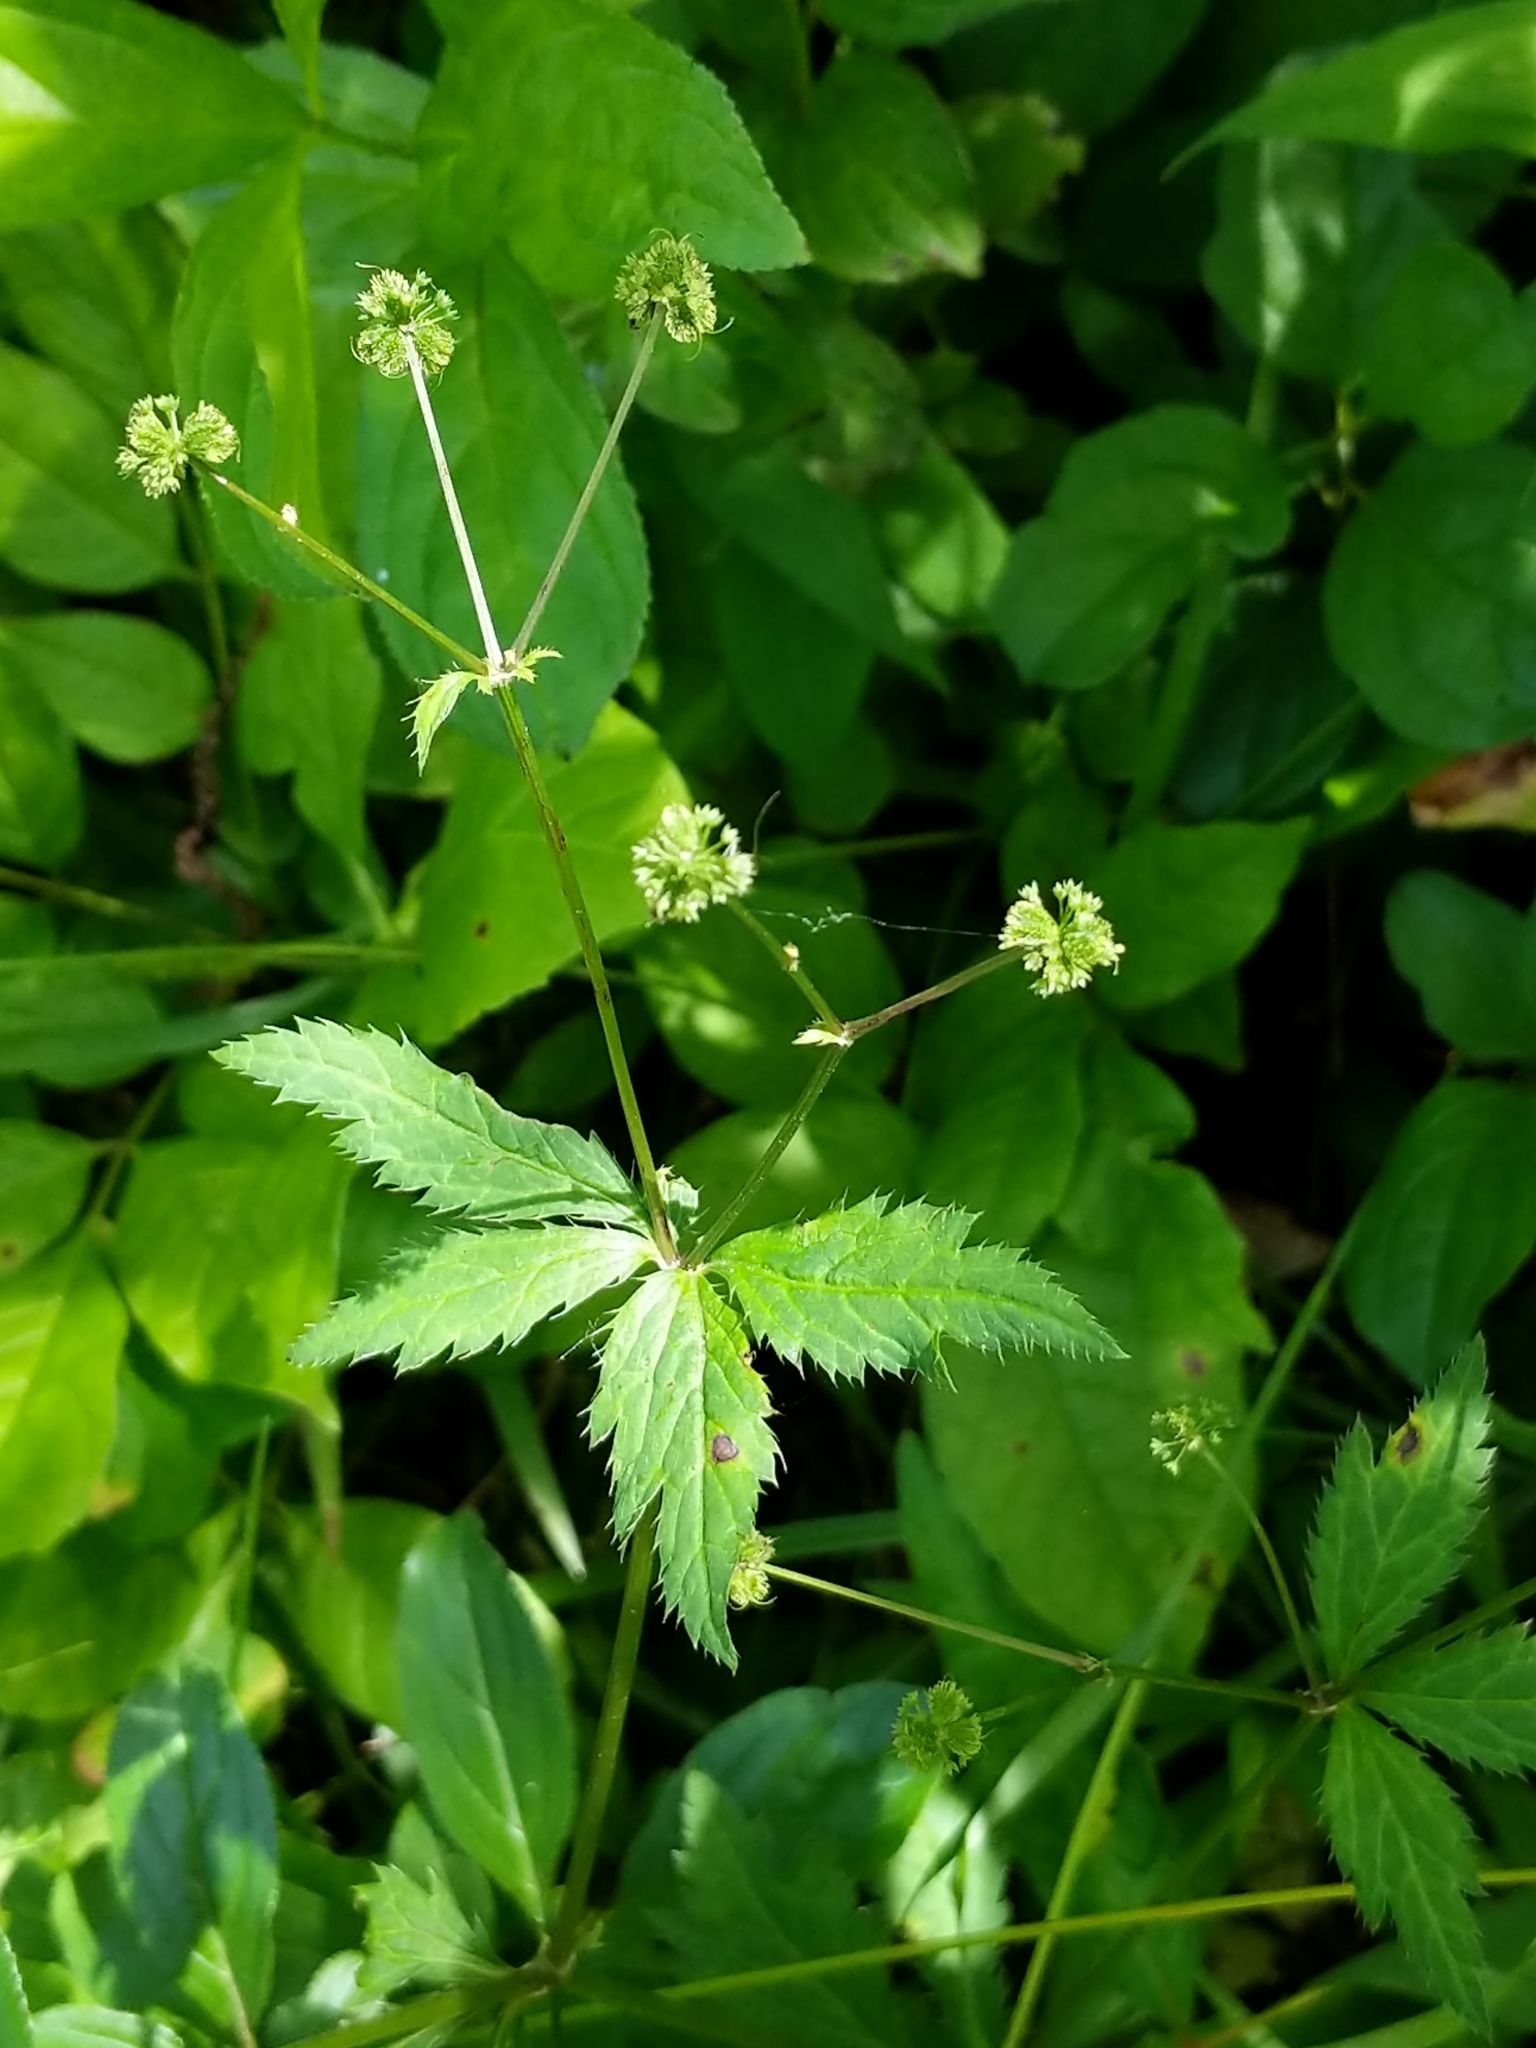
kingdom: Plantae
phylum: Tracheophyta
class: Magnoliopsida
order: Apiales
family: Apiaceae
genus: Sanicula
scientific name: Sanicula odorata
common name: Cluster sanicle
